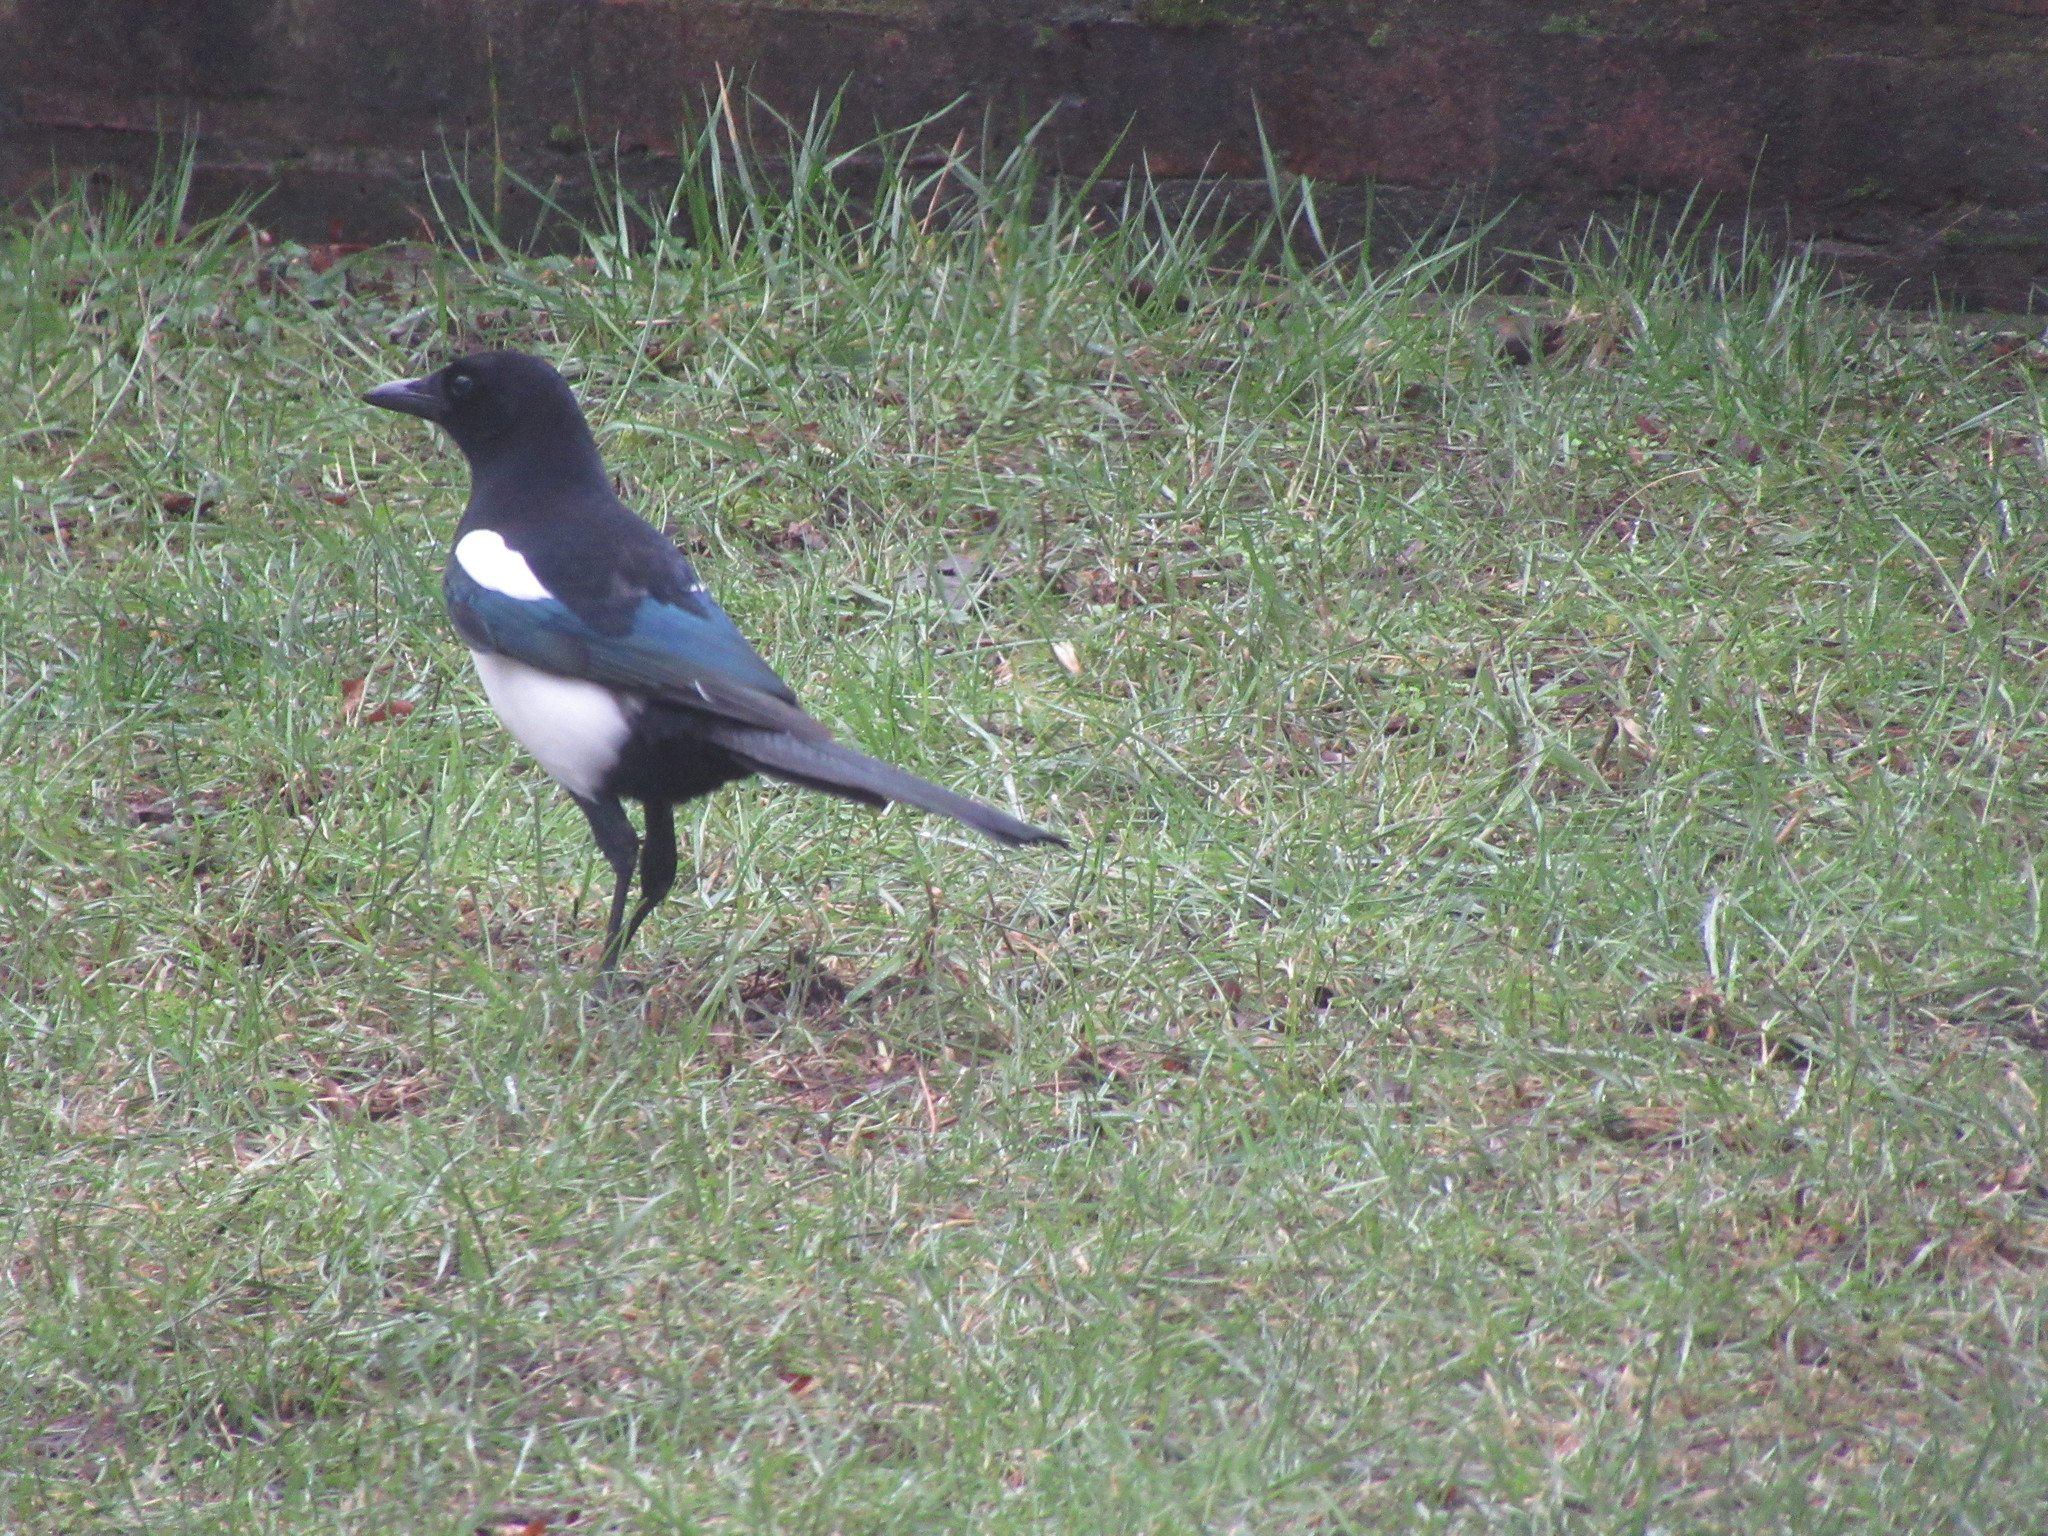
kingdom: Animalia
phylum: Chordata
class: Aves
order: Passeriformes
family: Corvidae
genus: Pica
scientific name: Pica pica
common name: Eurasian magpie
